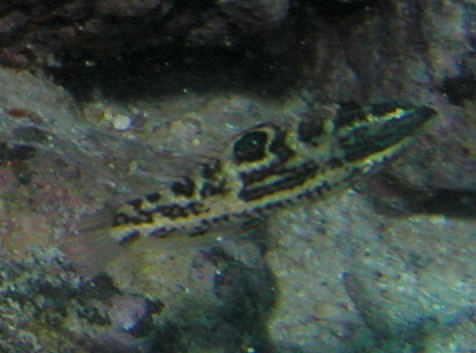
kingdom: Animalia
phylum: Chordata
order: Perciformes
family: Labridae
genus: Halichoeres
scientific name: Halichoeres nicholsi
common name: Spinster wrasse
